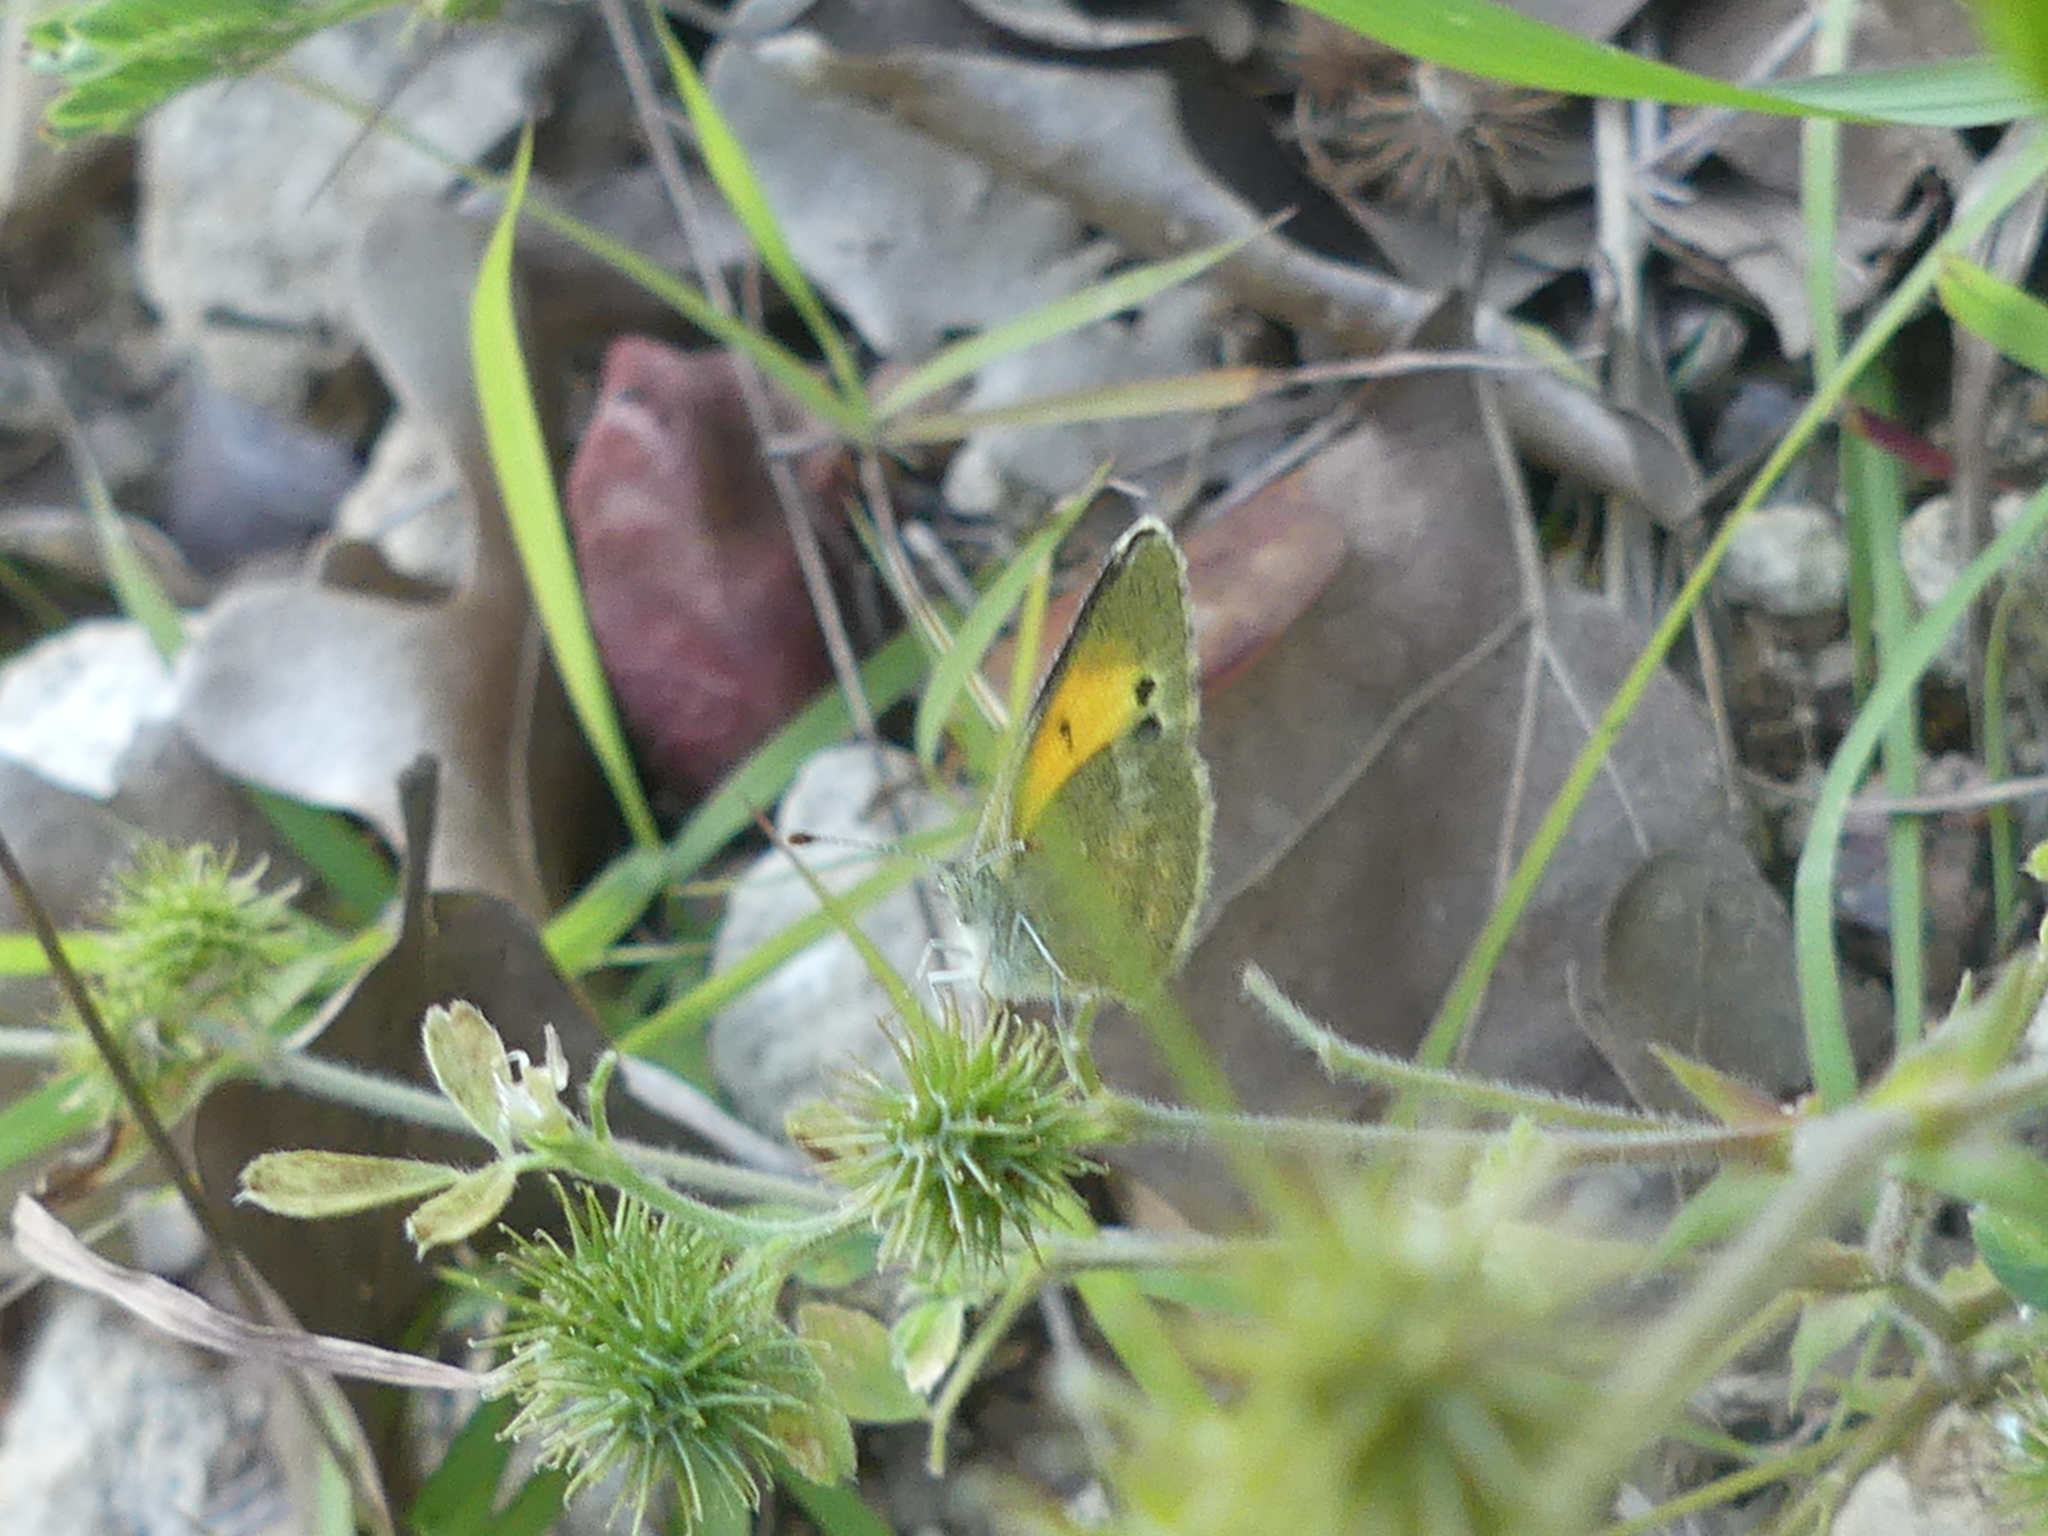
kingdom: Animalia
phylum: Arthropoda
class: Insecta
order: Lepidoptera
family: Pieridae
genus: Nathalis
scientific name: Nathalis iole
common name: Dainty sulphur
